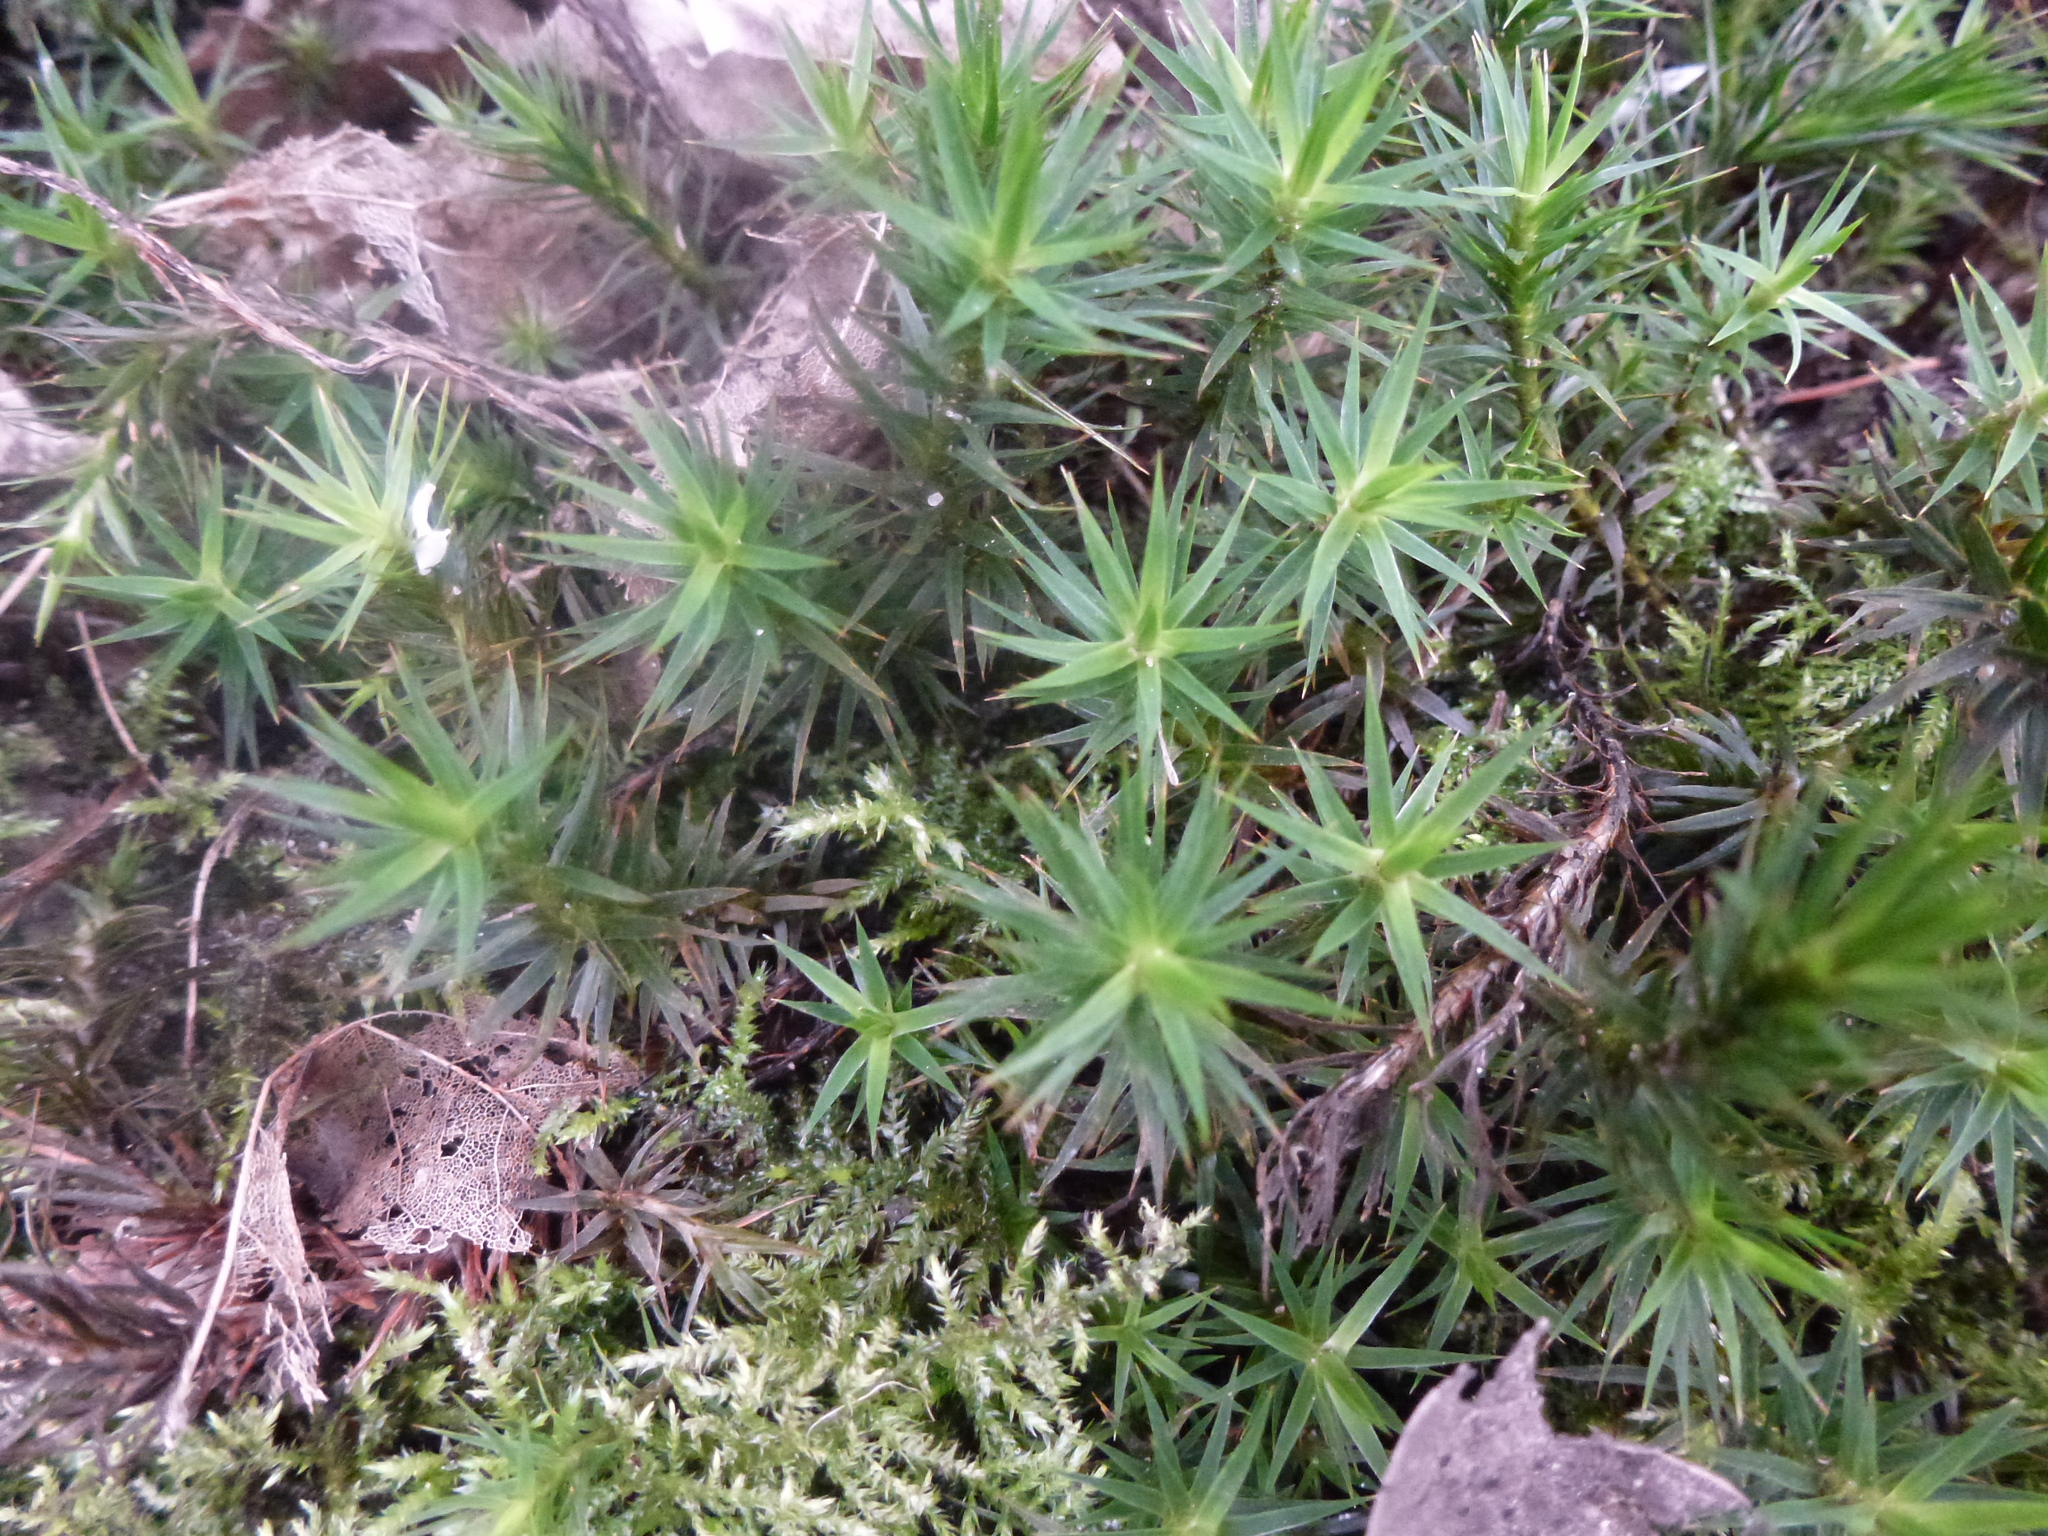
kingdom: Plantae
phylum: Bryophyta
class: Polytrichopsida
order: Polytrichales
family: Polytrichaceae
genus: Polytrichum
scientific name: Polytrichum formosum
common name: Bank haircap moss
